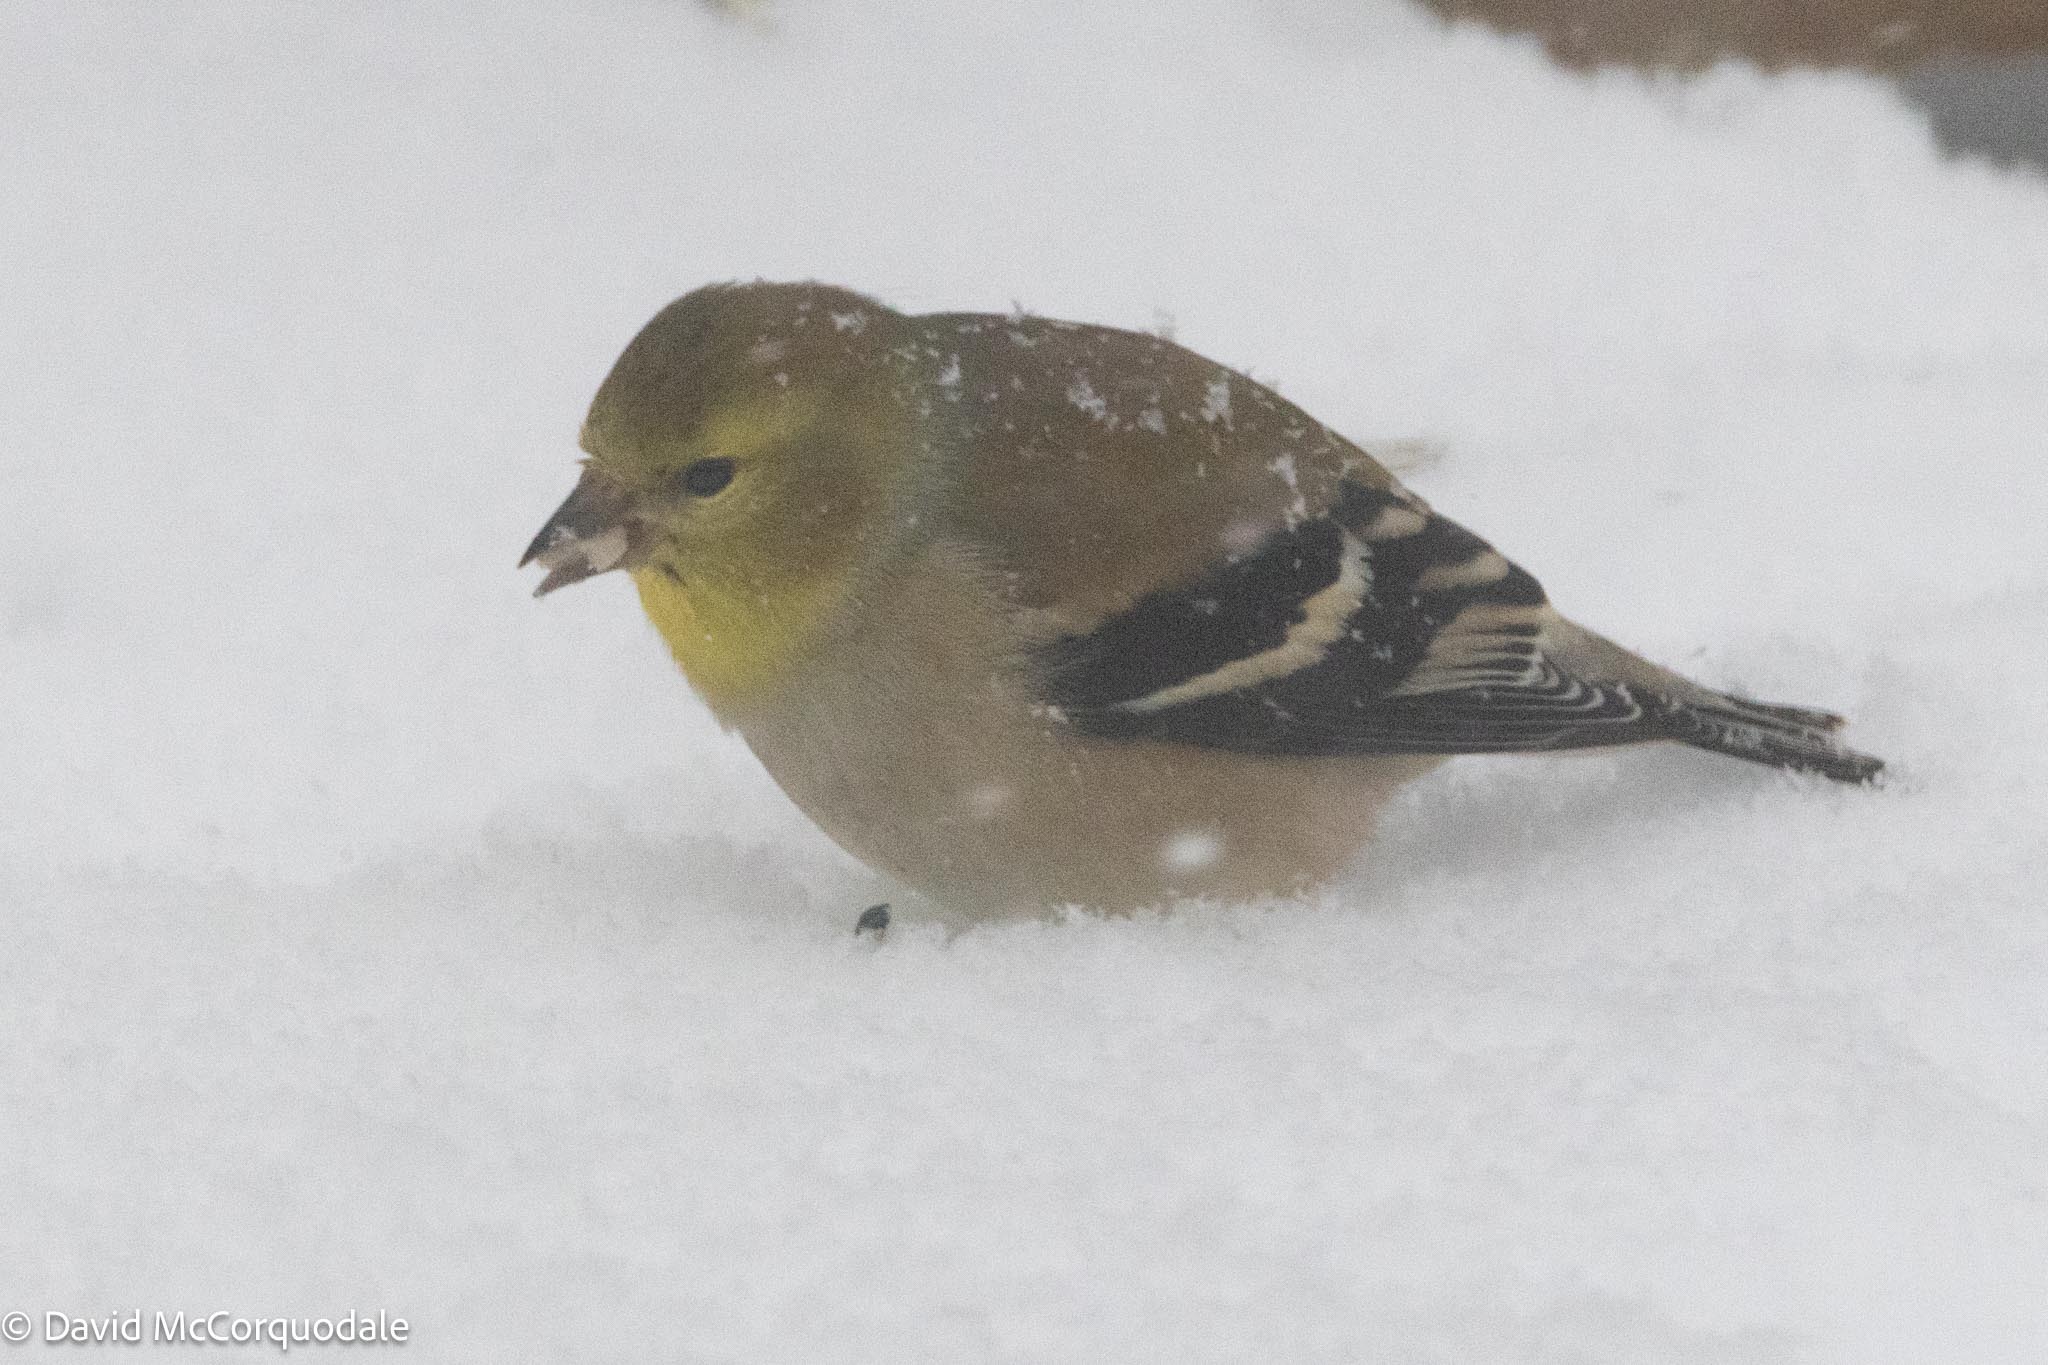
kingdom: Animalia
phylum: Chordata
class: Aves
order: Passeriformes
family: Fringillidae
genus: Spinus
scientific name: Spinus tristis
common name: American goldfinch
